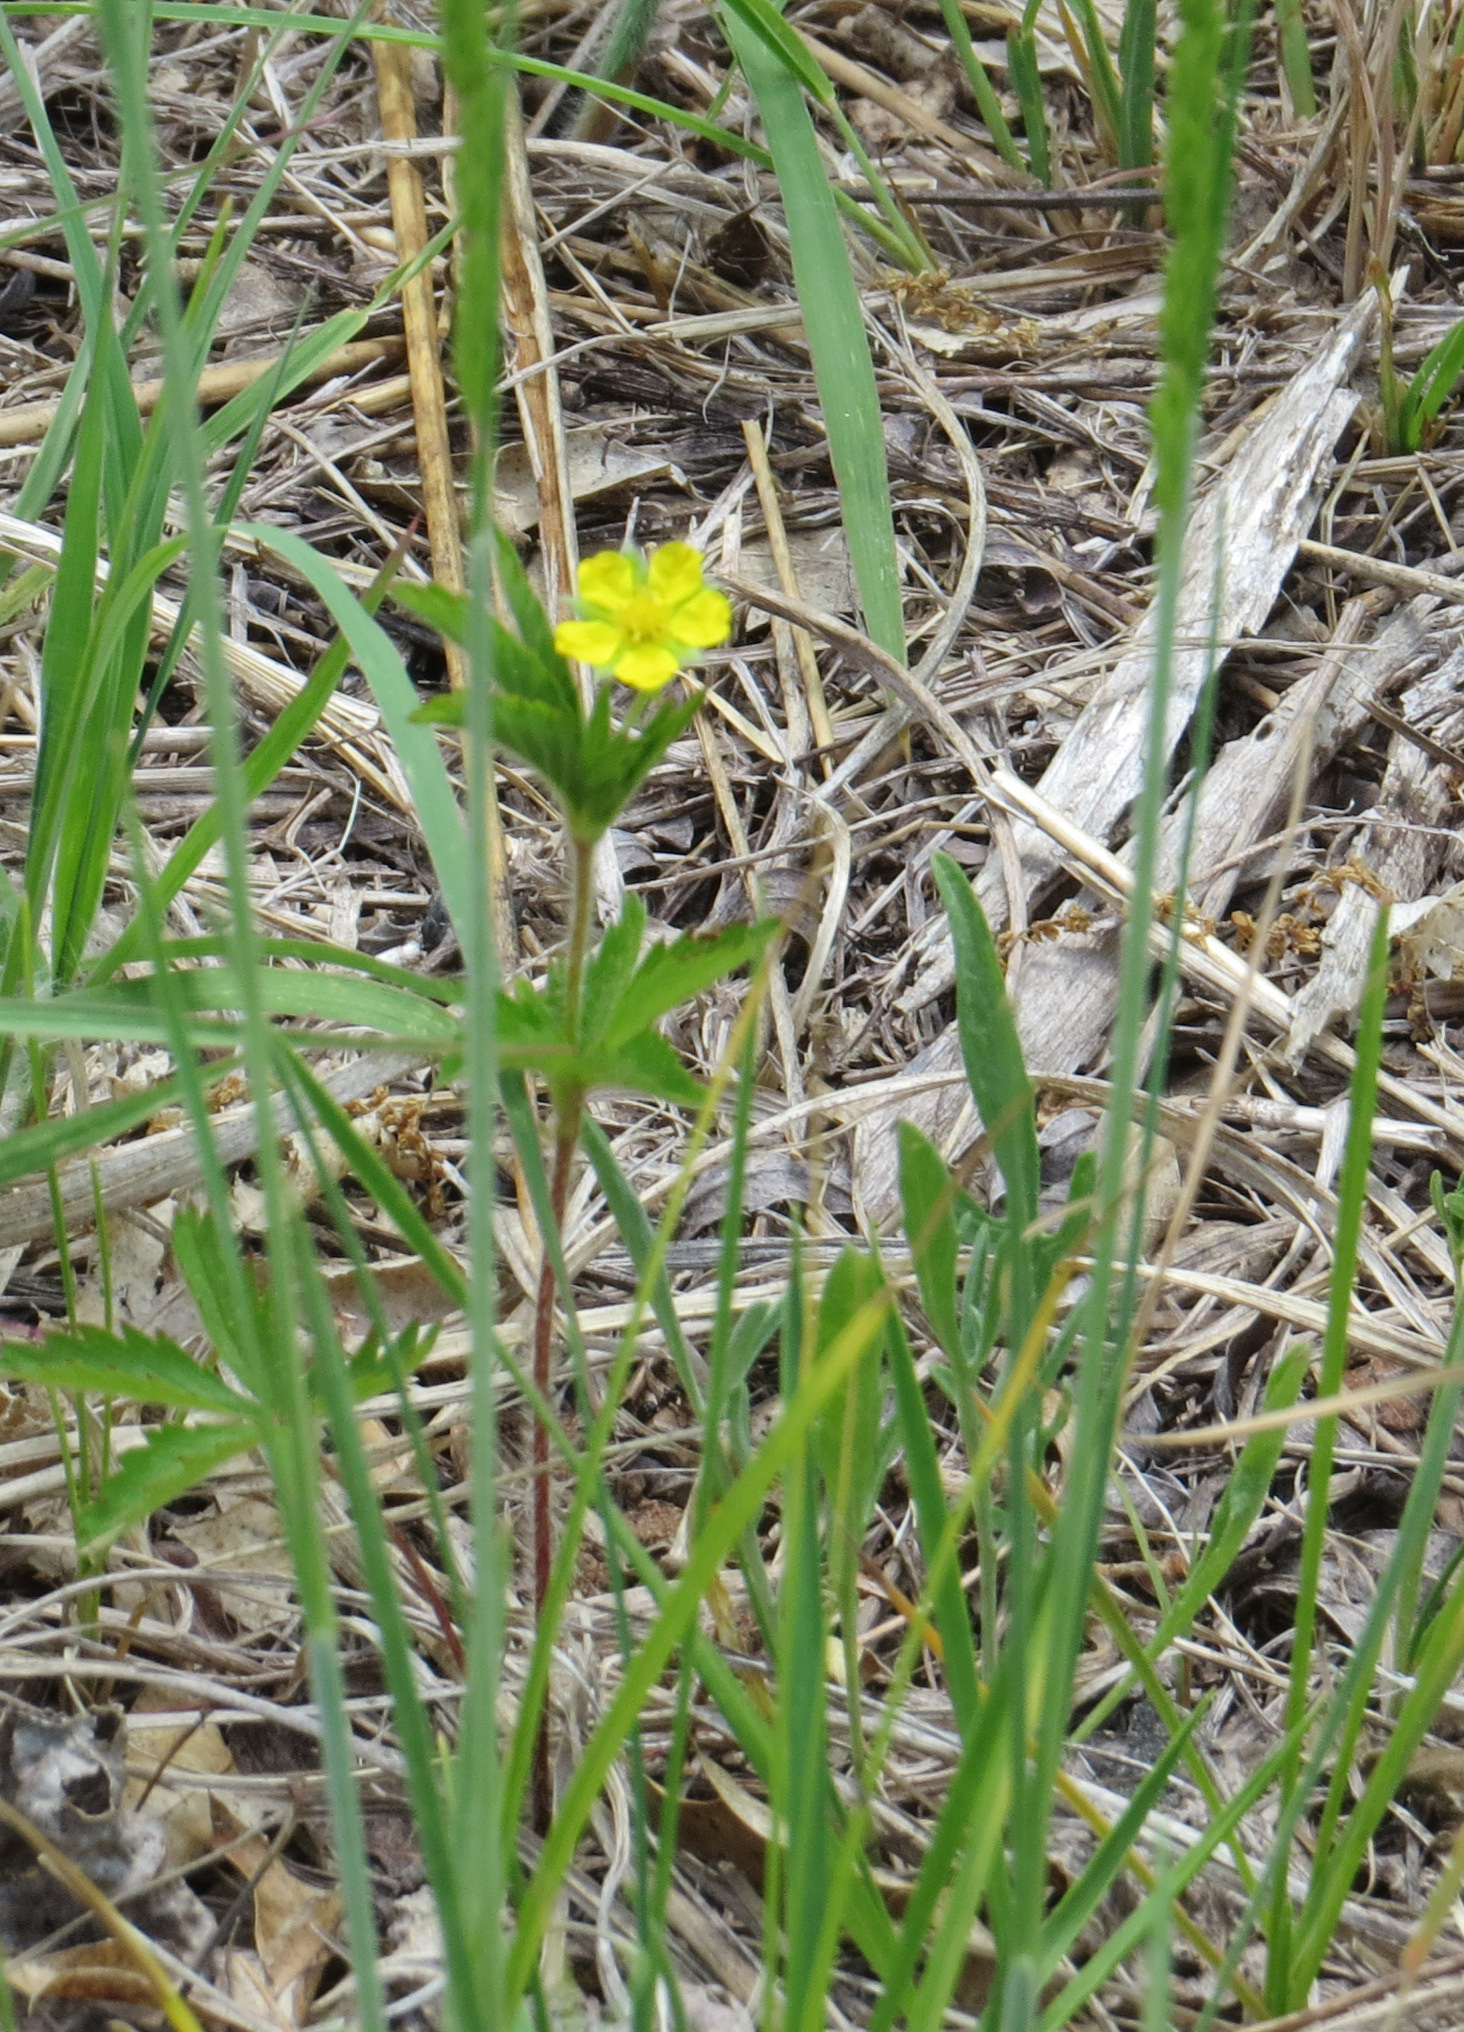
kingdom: Plantae
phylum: Tracheophyta
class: Magnoliopsida
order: Rosales
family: Rosaceae
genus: Potentilla
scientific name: Potentilla simplex
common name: Old field cinquefoil
